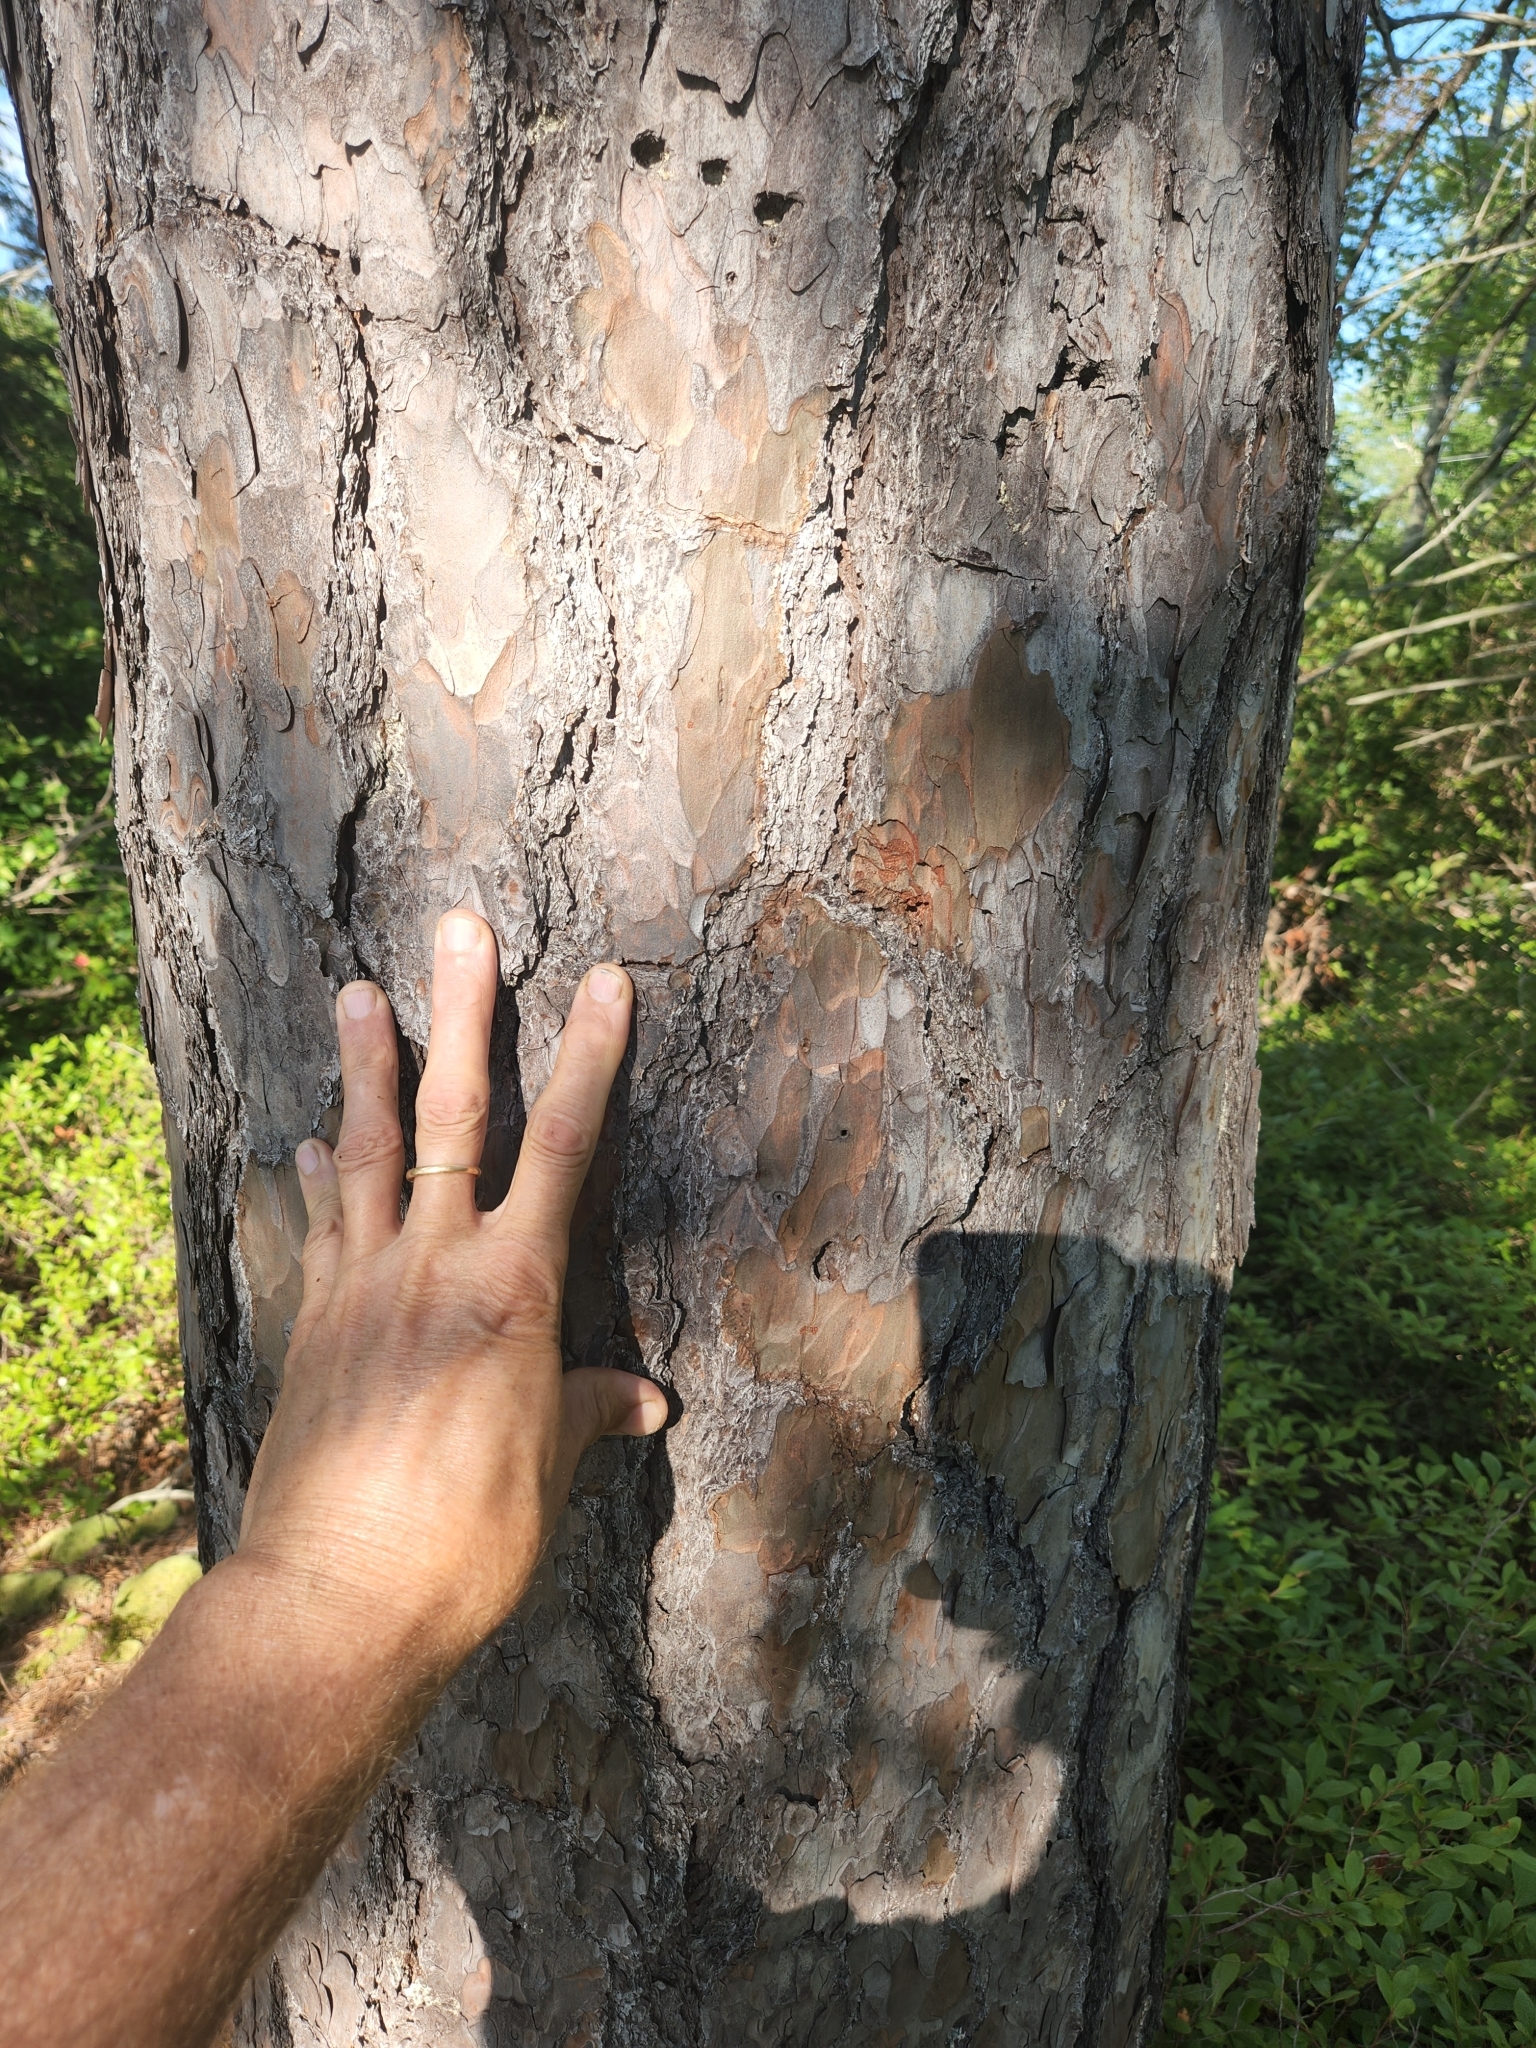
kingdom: Plantae
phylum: Tracheophyta
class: Pinopsida
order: Pinales
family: Pinaceae
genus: Pinus
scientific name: Pinus rigida
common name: Pitch pine
